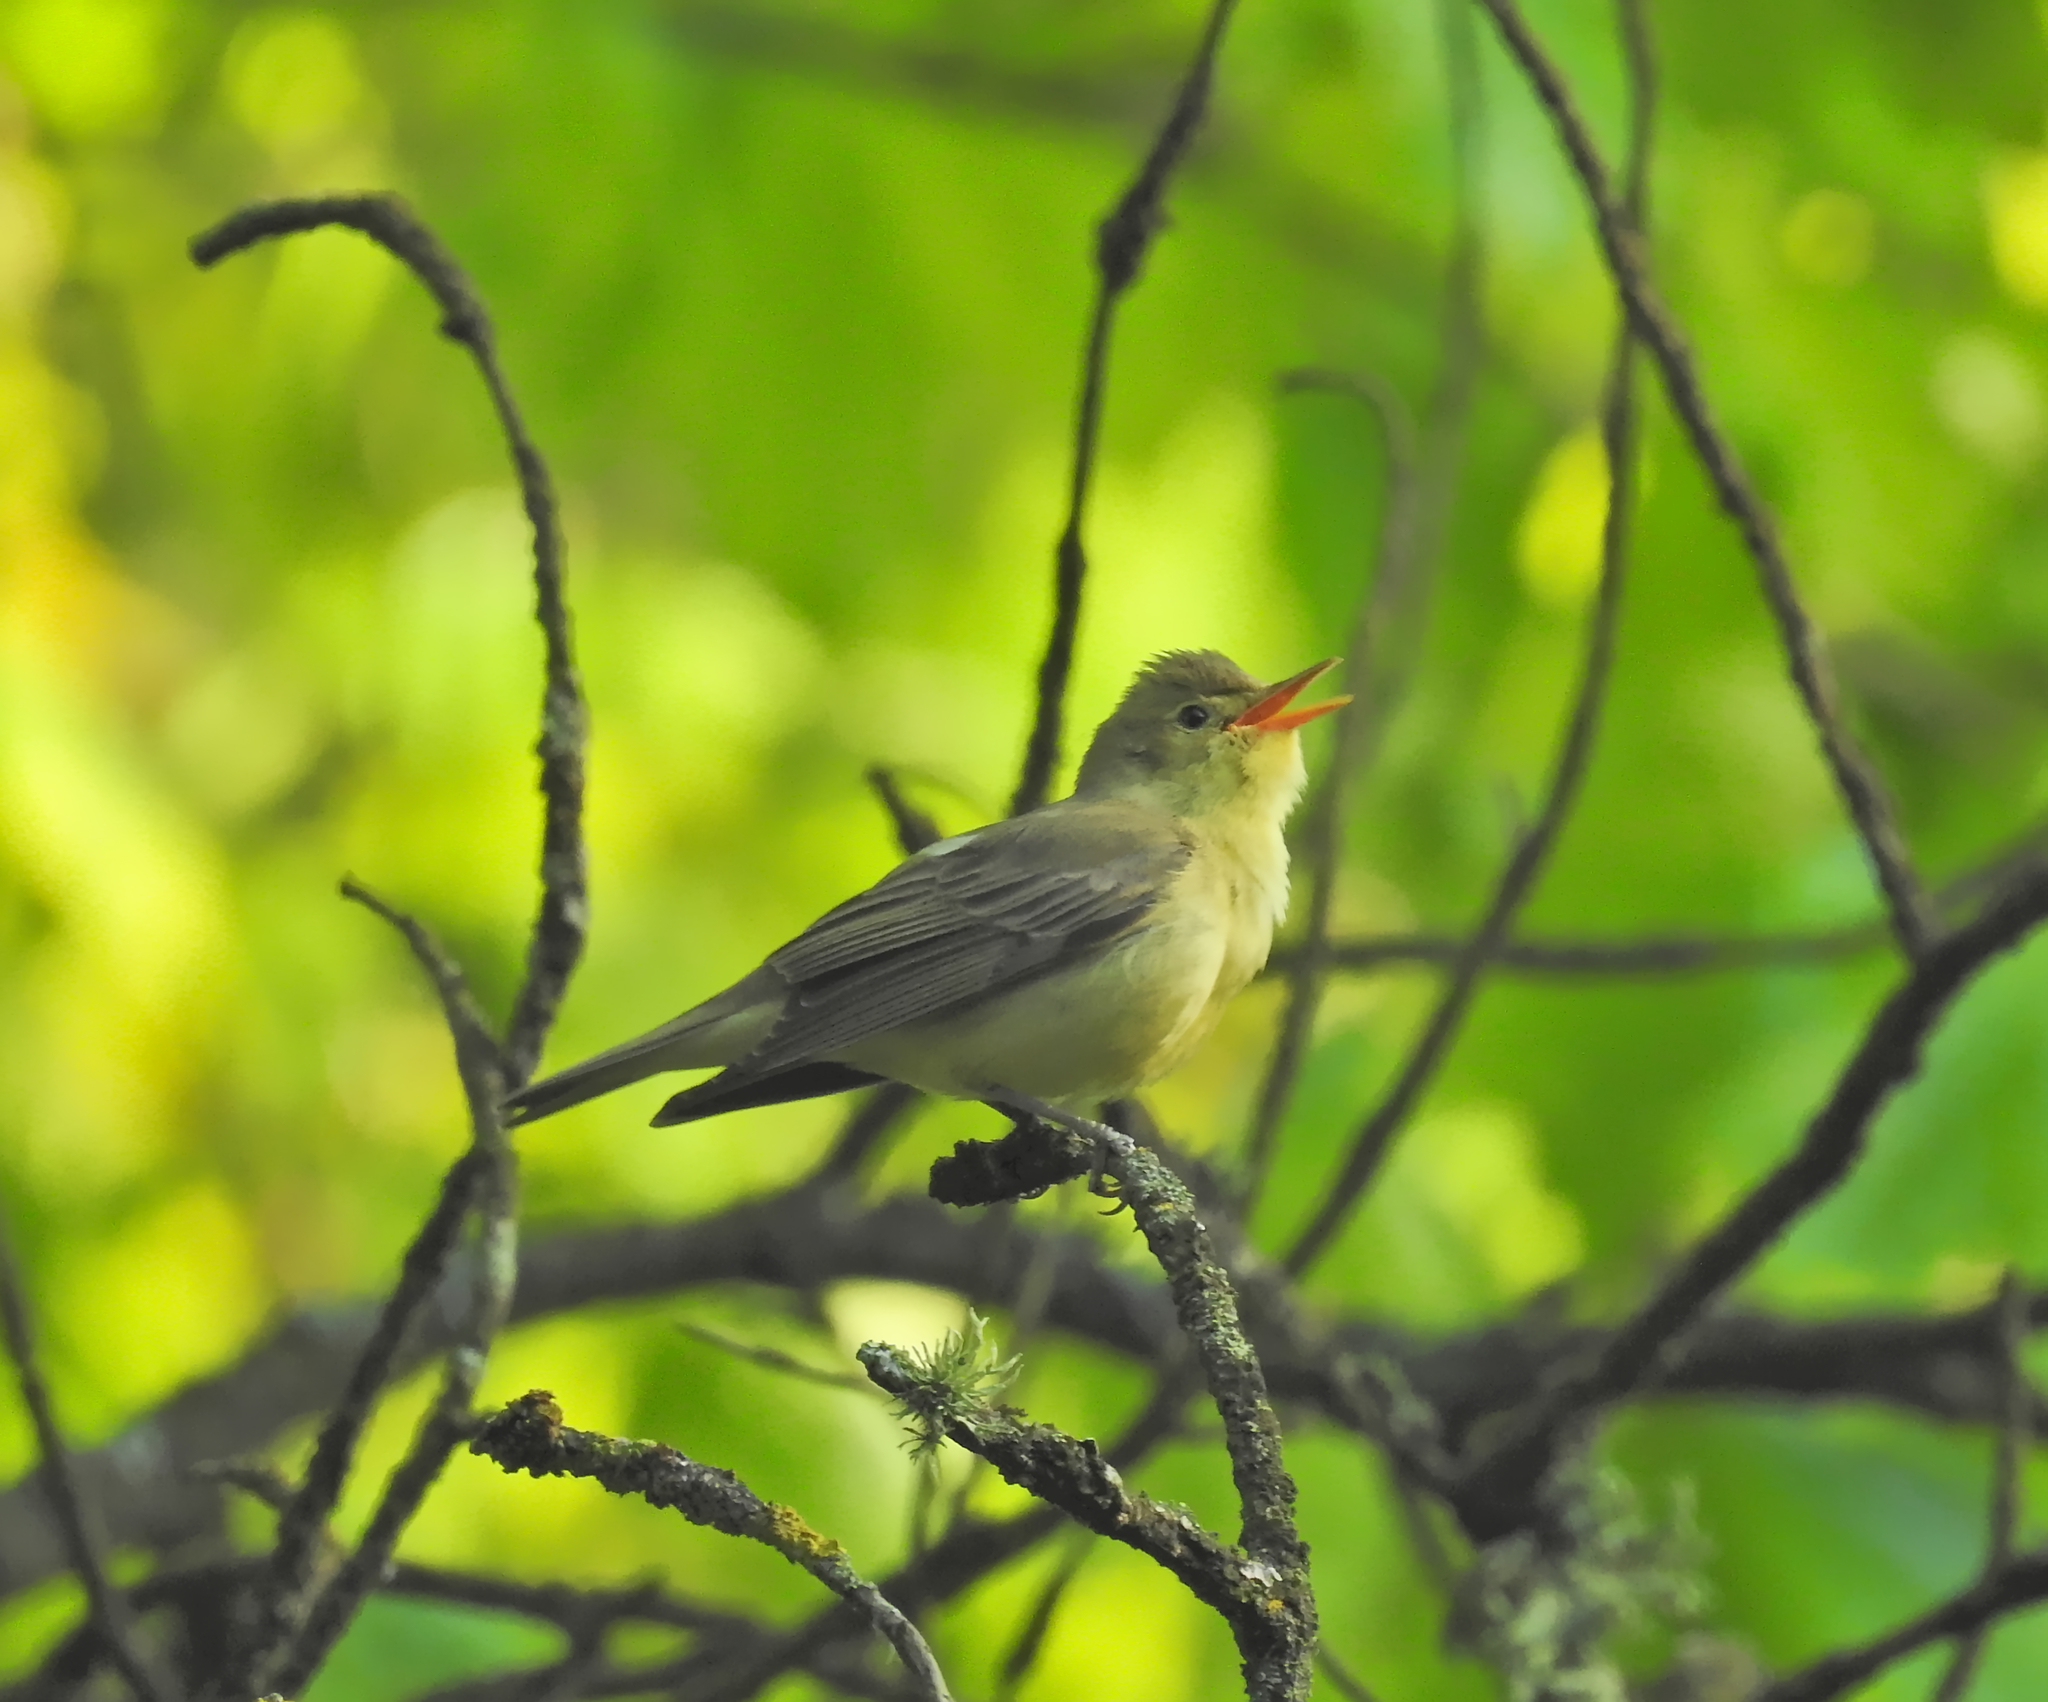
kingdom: Animalia
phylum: Chordata
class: Aves
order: Passeriformes
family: Acrocephalidae
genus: Hippolais
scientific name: Hippolais icterina
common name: Icterine warbler
